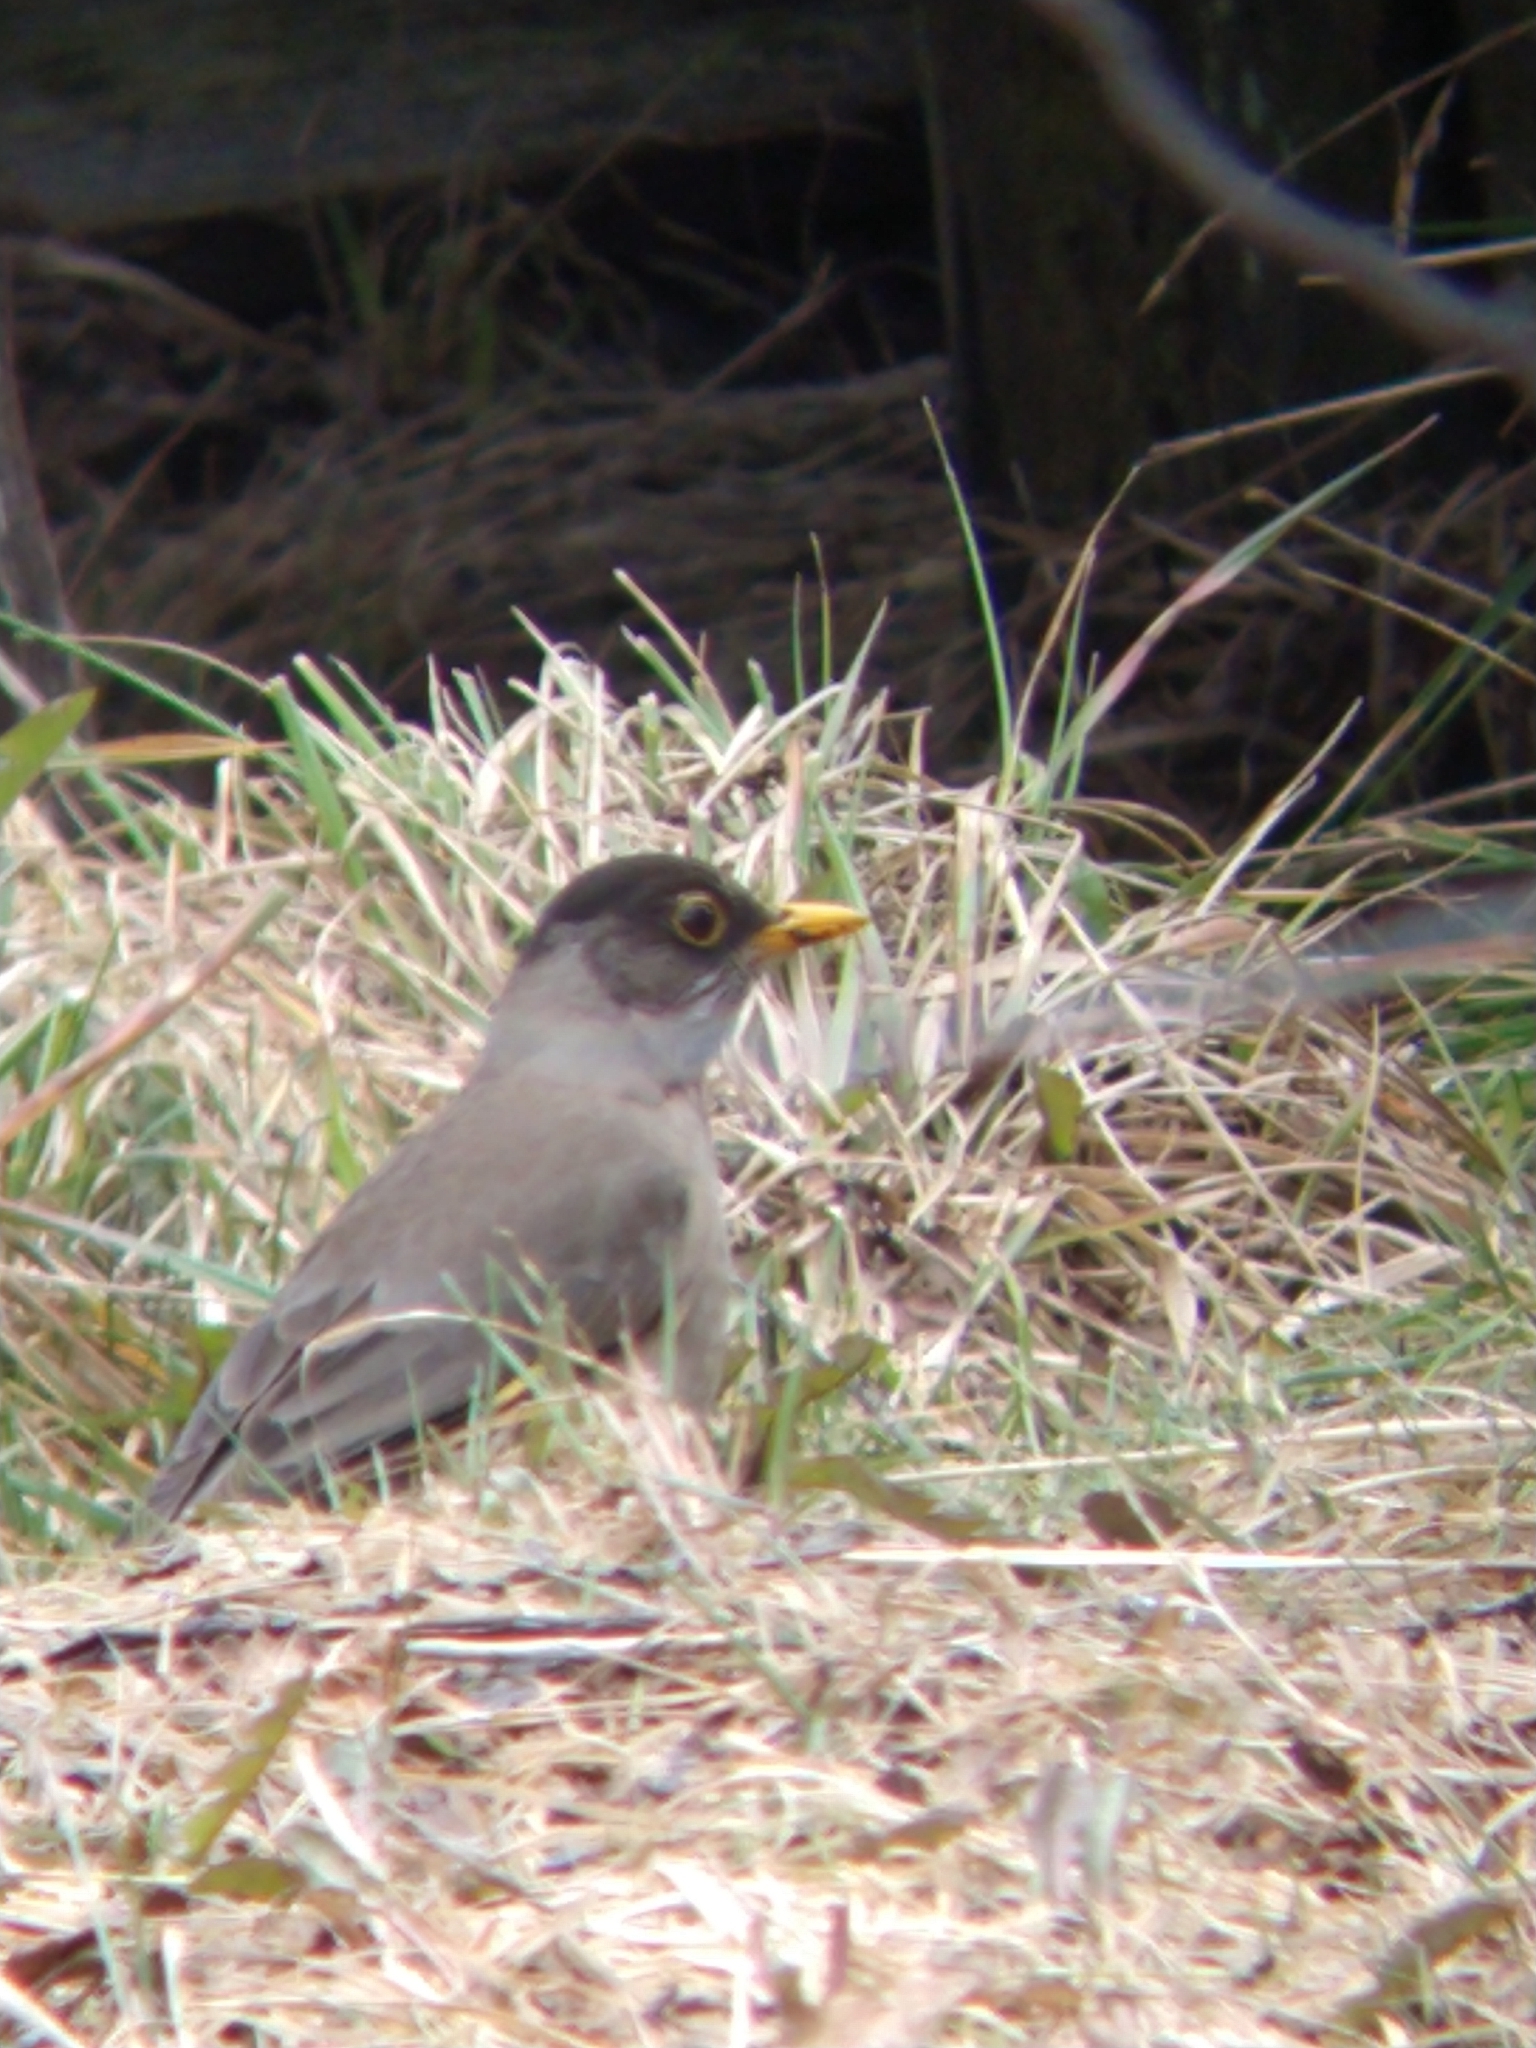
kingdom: Animalia
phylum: Chordata
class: Aves
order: Passeriformes
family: Turdidae
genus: Turdus
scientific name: Turdus falcklandii
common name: Austral thrush
